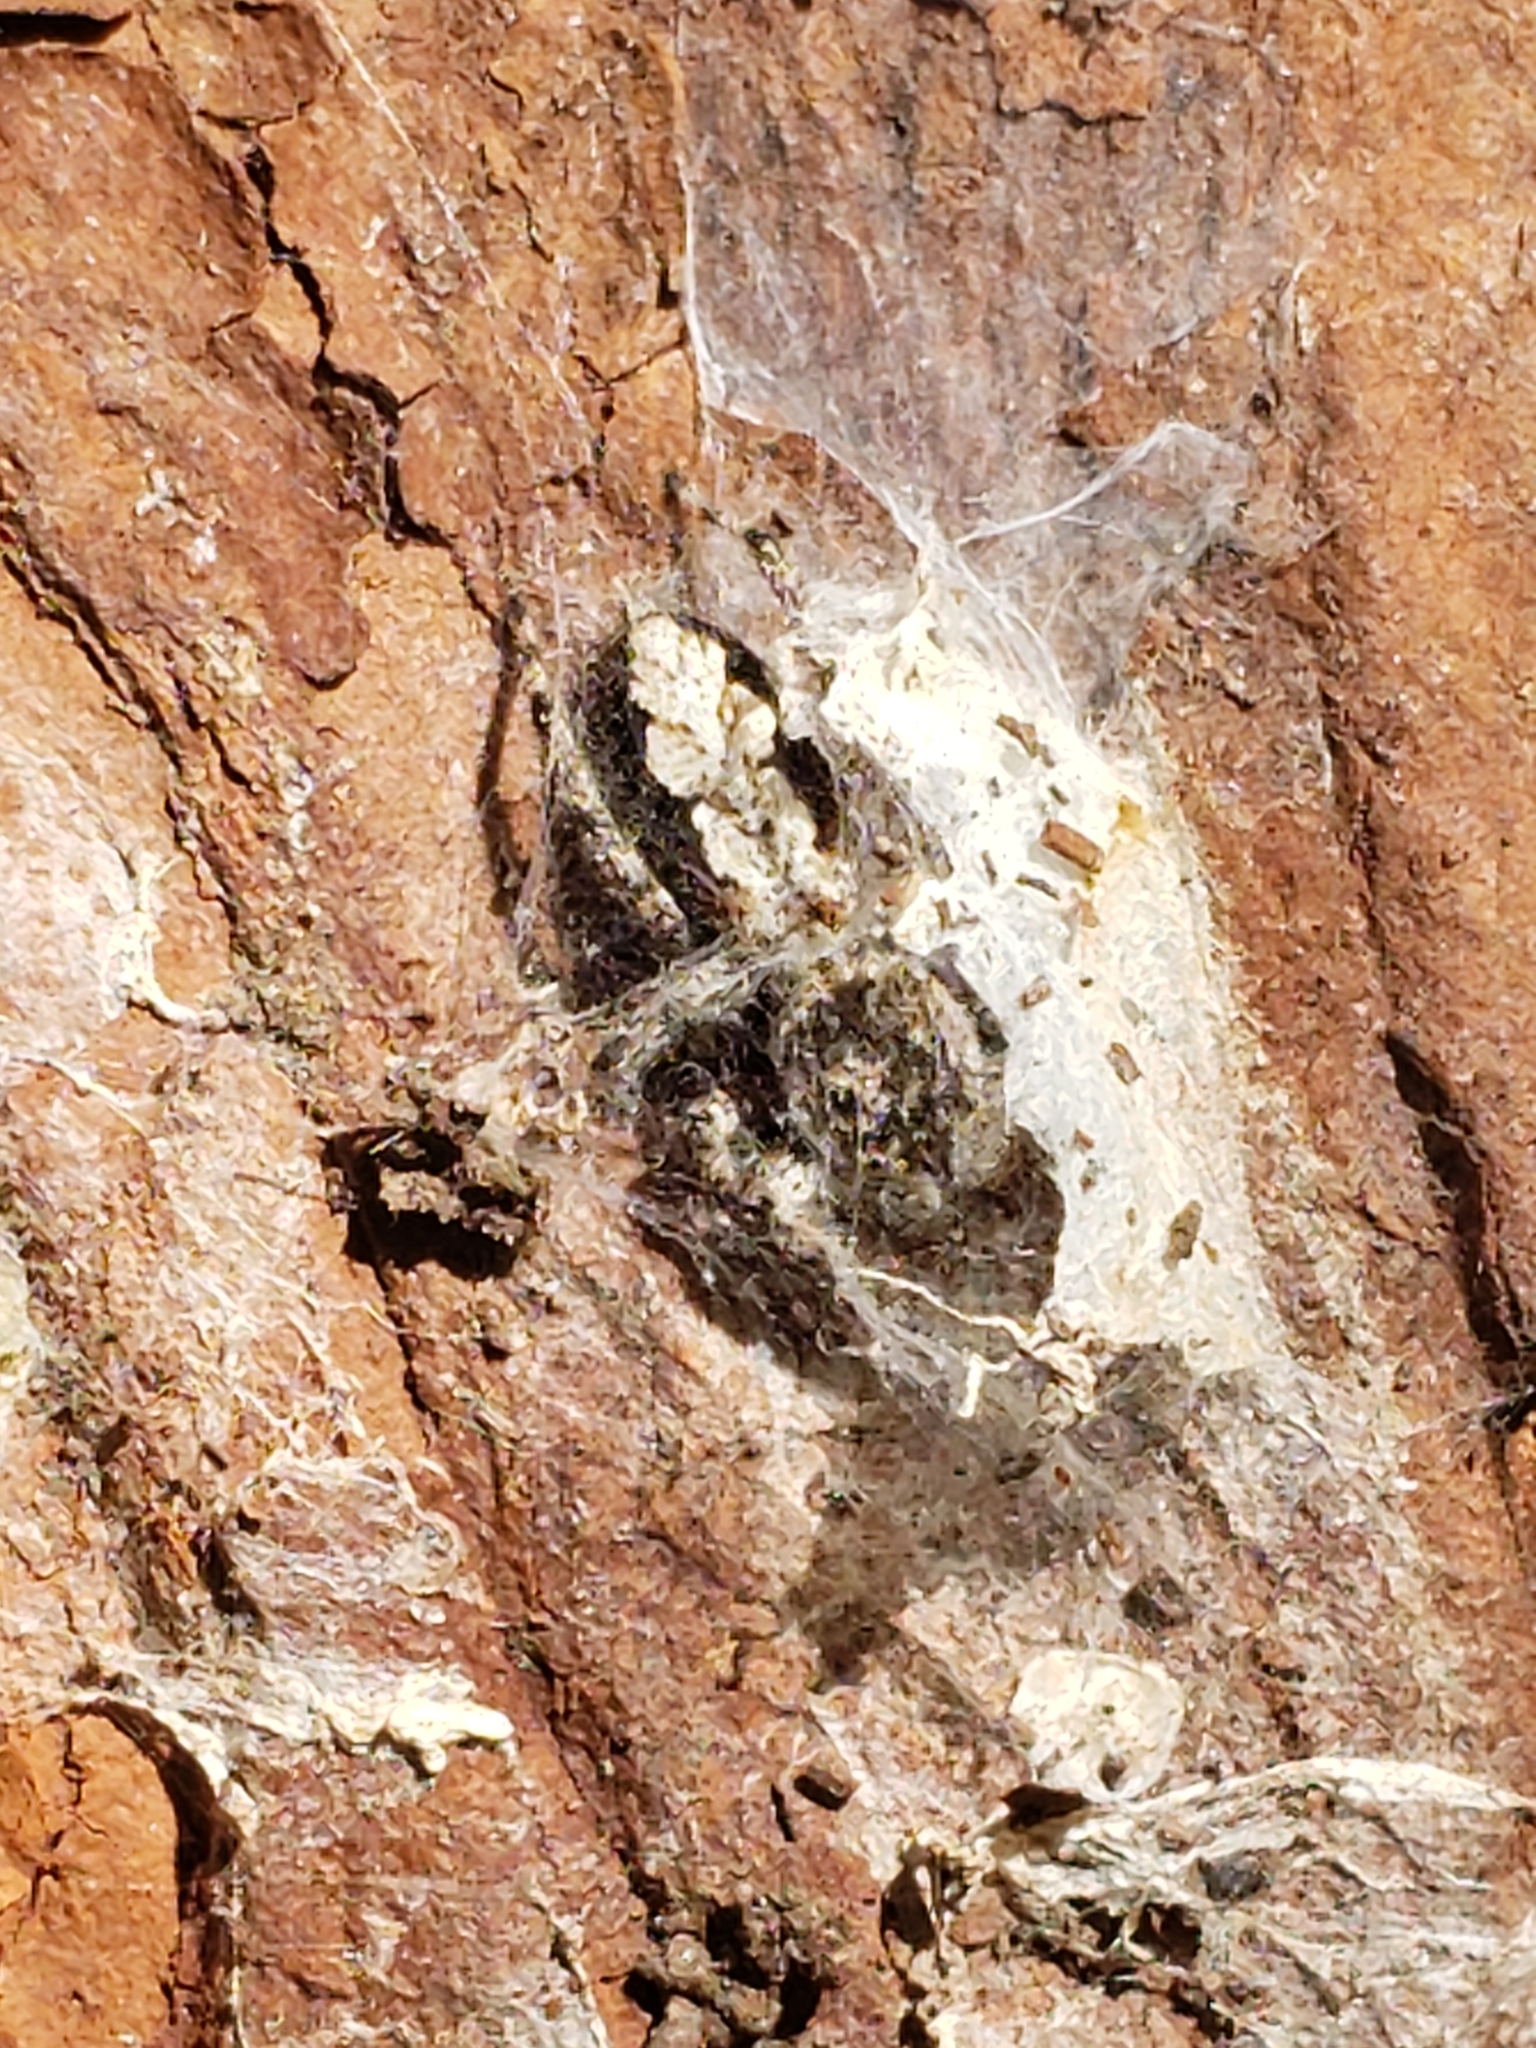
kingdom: Animalia
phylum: Arthropoda
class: Arachnida
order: Araneae
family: Salticidae
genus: Platycryptus
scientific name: Platycryptus undatus
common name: Tan jumping spider
